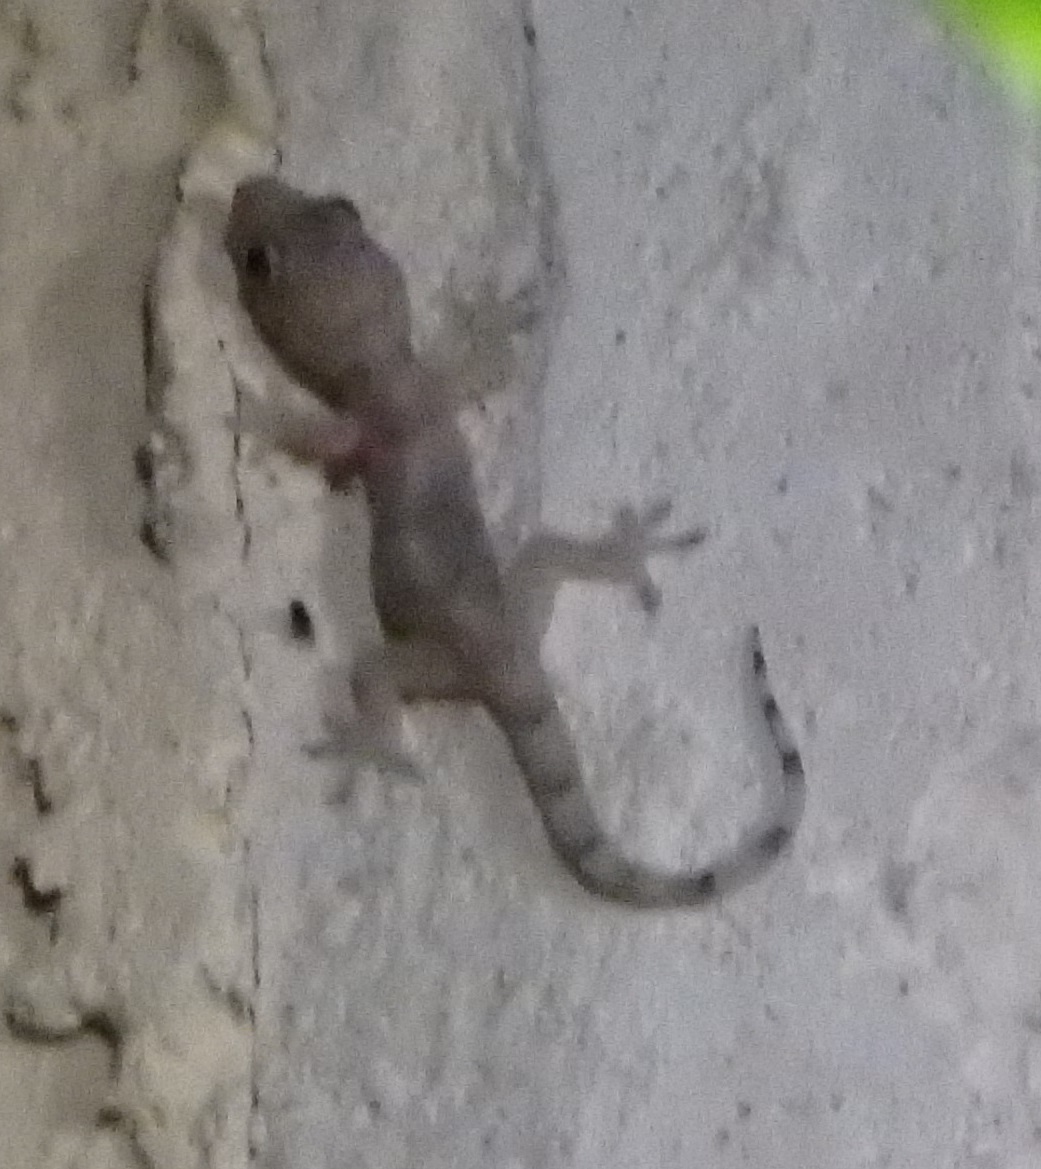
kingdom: Animalia
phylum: Chordata
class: Squamata
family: Gekkonidae
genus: Hemidactylus
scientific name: Hemidactylus mabouia
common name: House gecko
